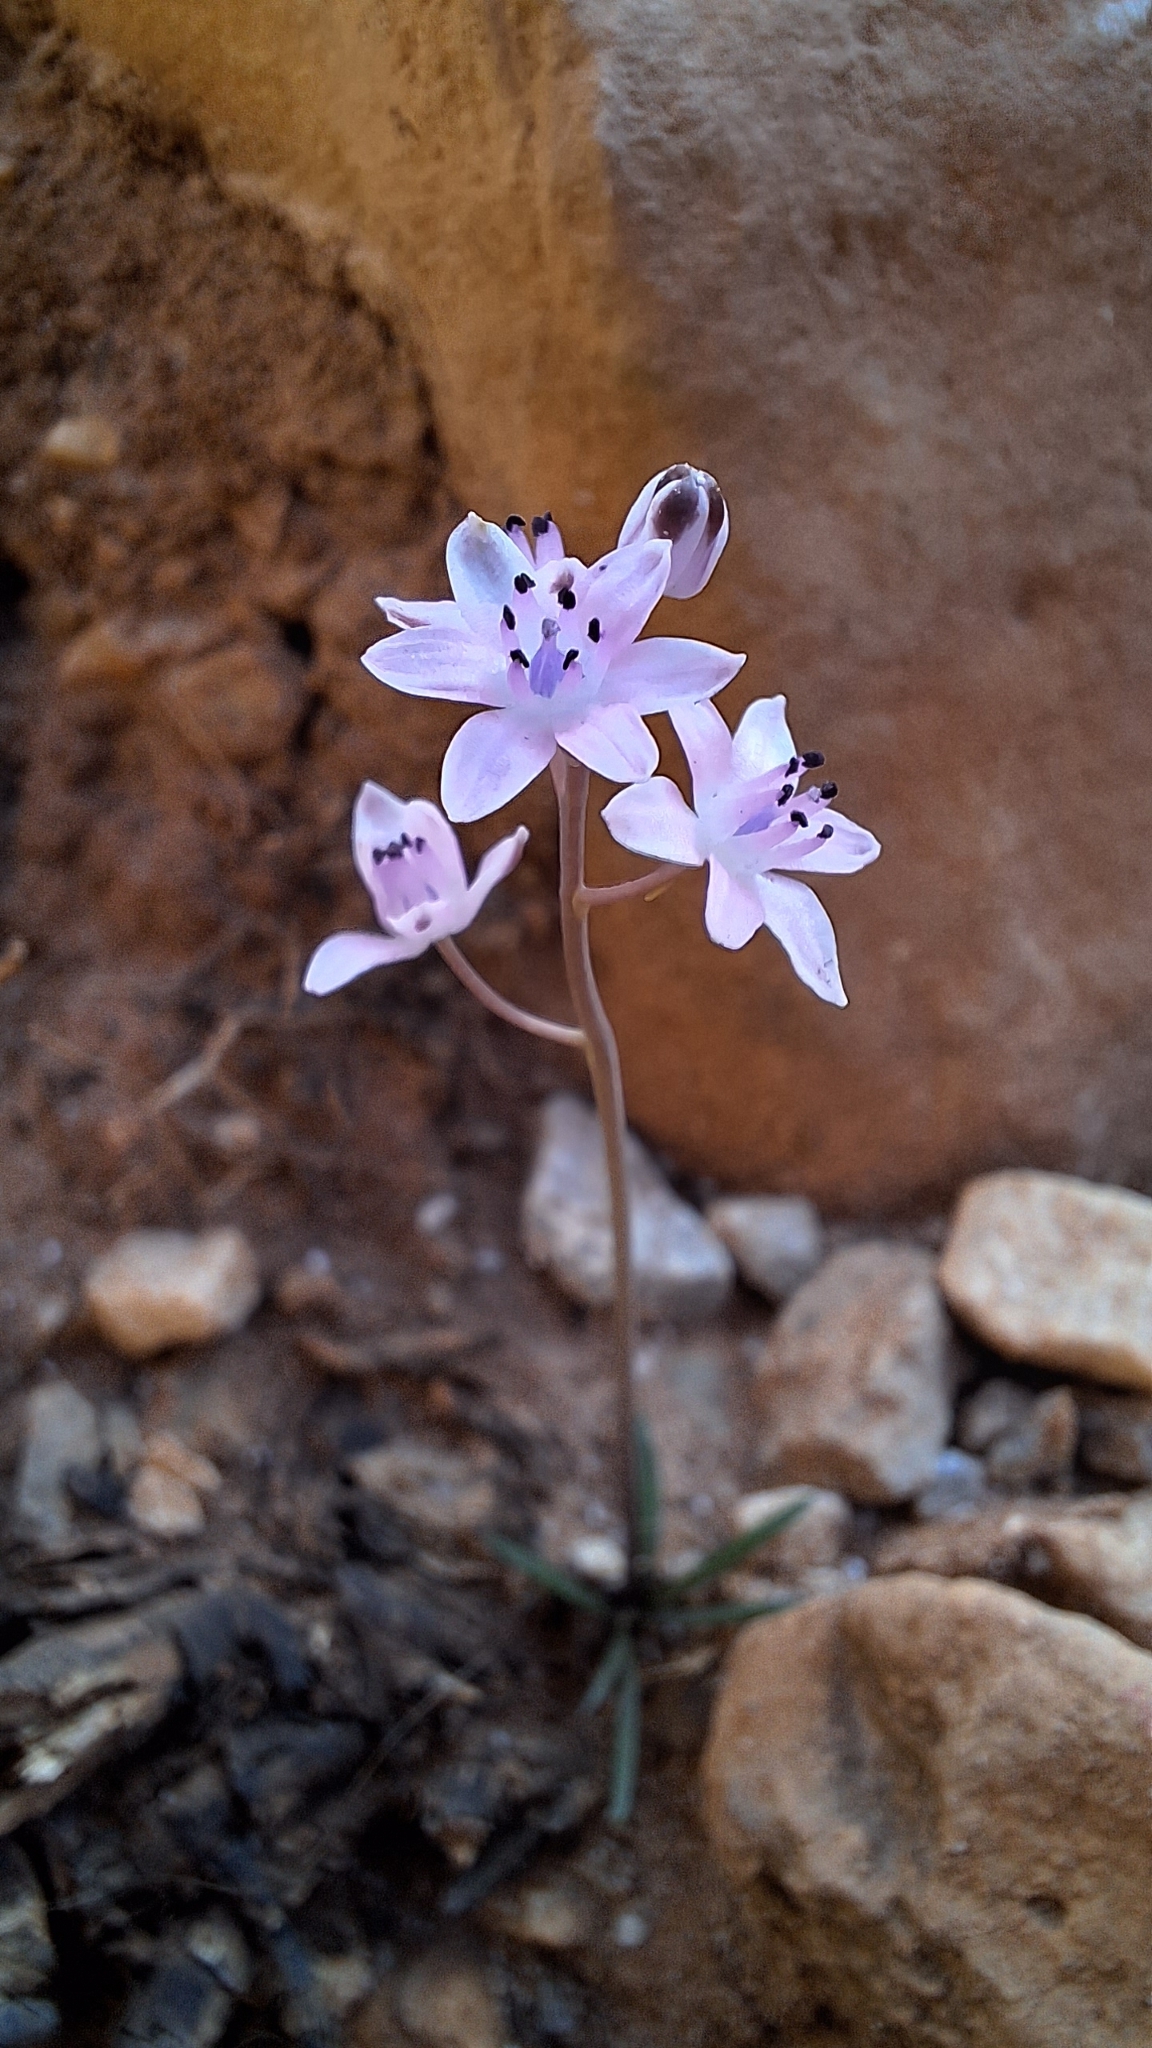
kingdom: Plantae
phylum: Tracheophyta
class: Liliopsida
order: Asparagales
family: Asparagaceae
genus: Prospero
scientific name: Prospero autumnale
